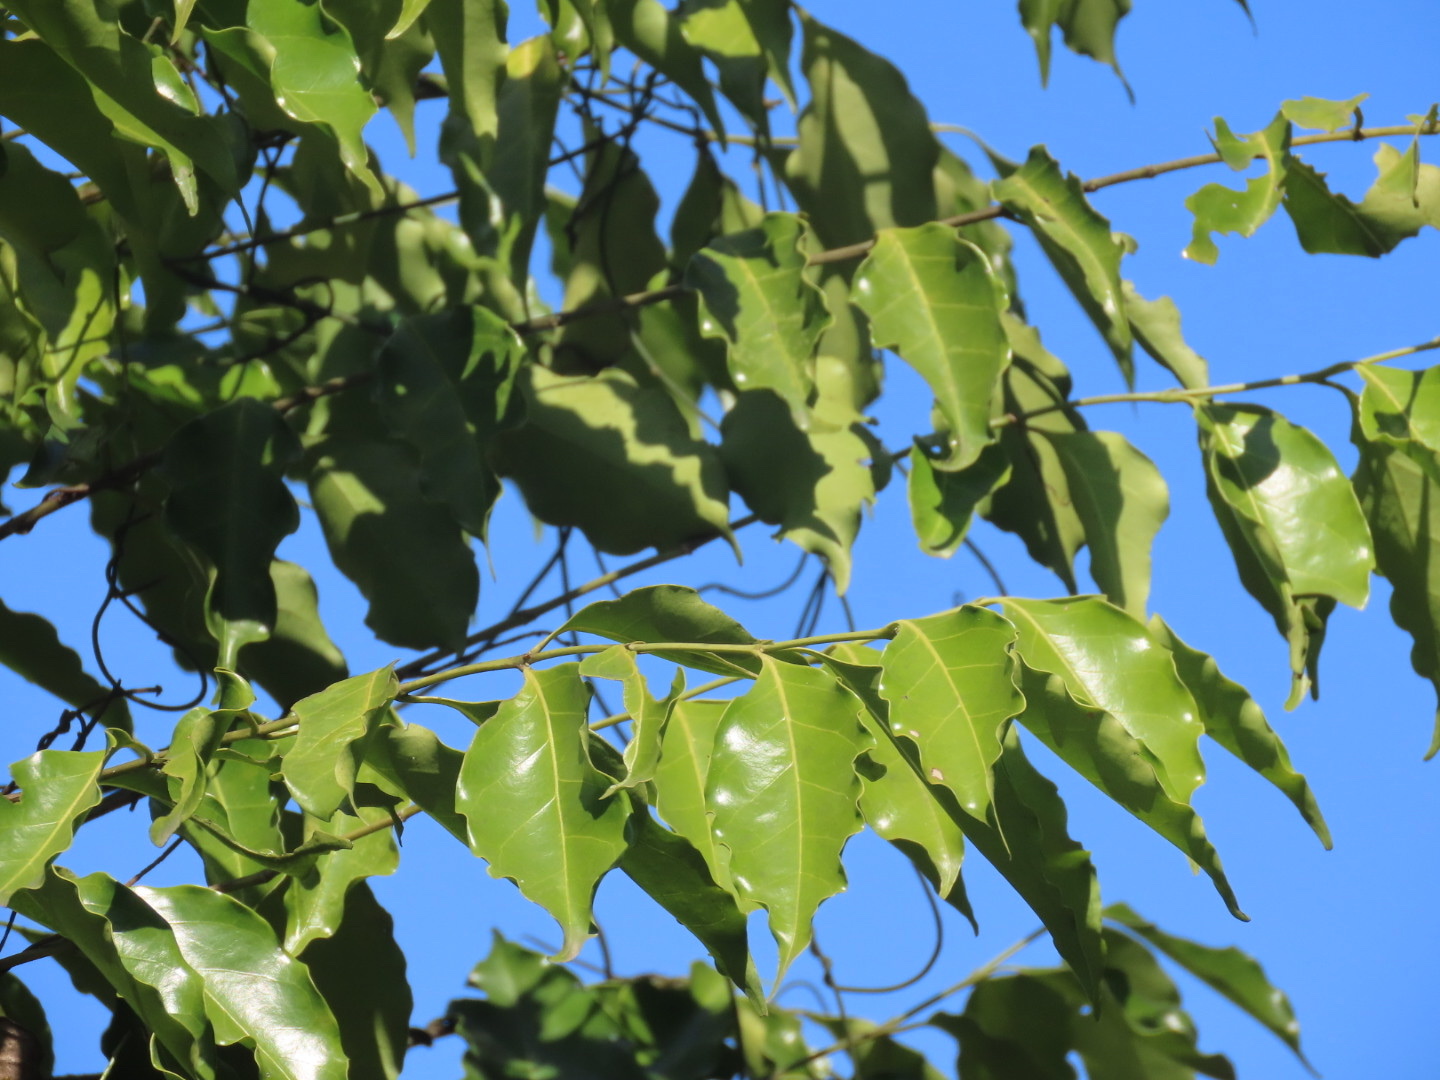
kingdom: Plantae
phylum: Tracheophyta
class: Magnoliopsida
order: Gentianales
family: Rubiaceae
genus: Psydrax
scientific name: Psydrax dicoccos
